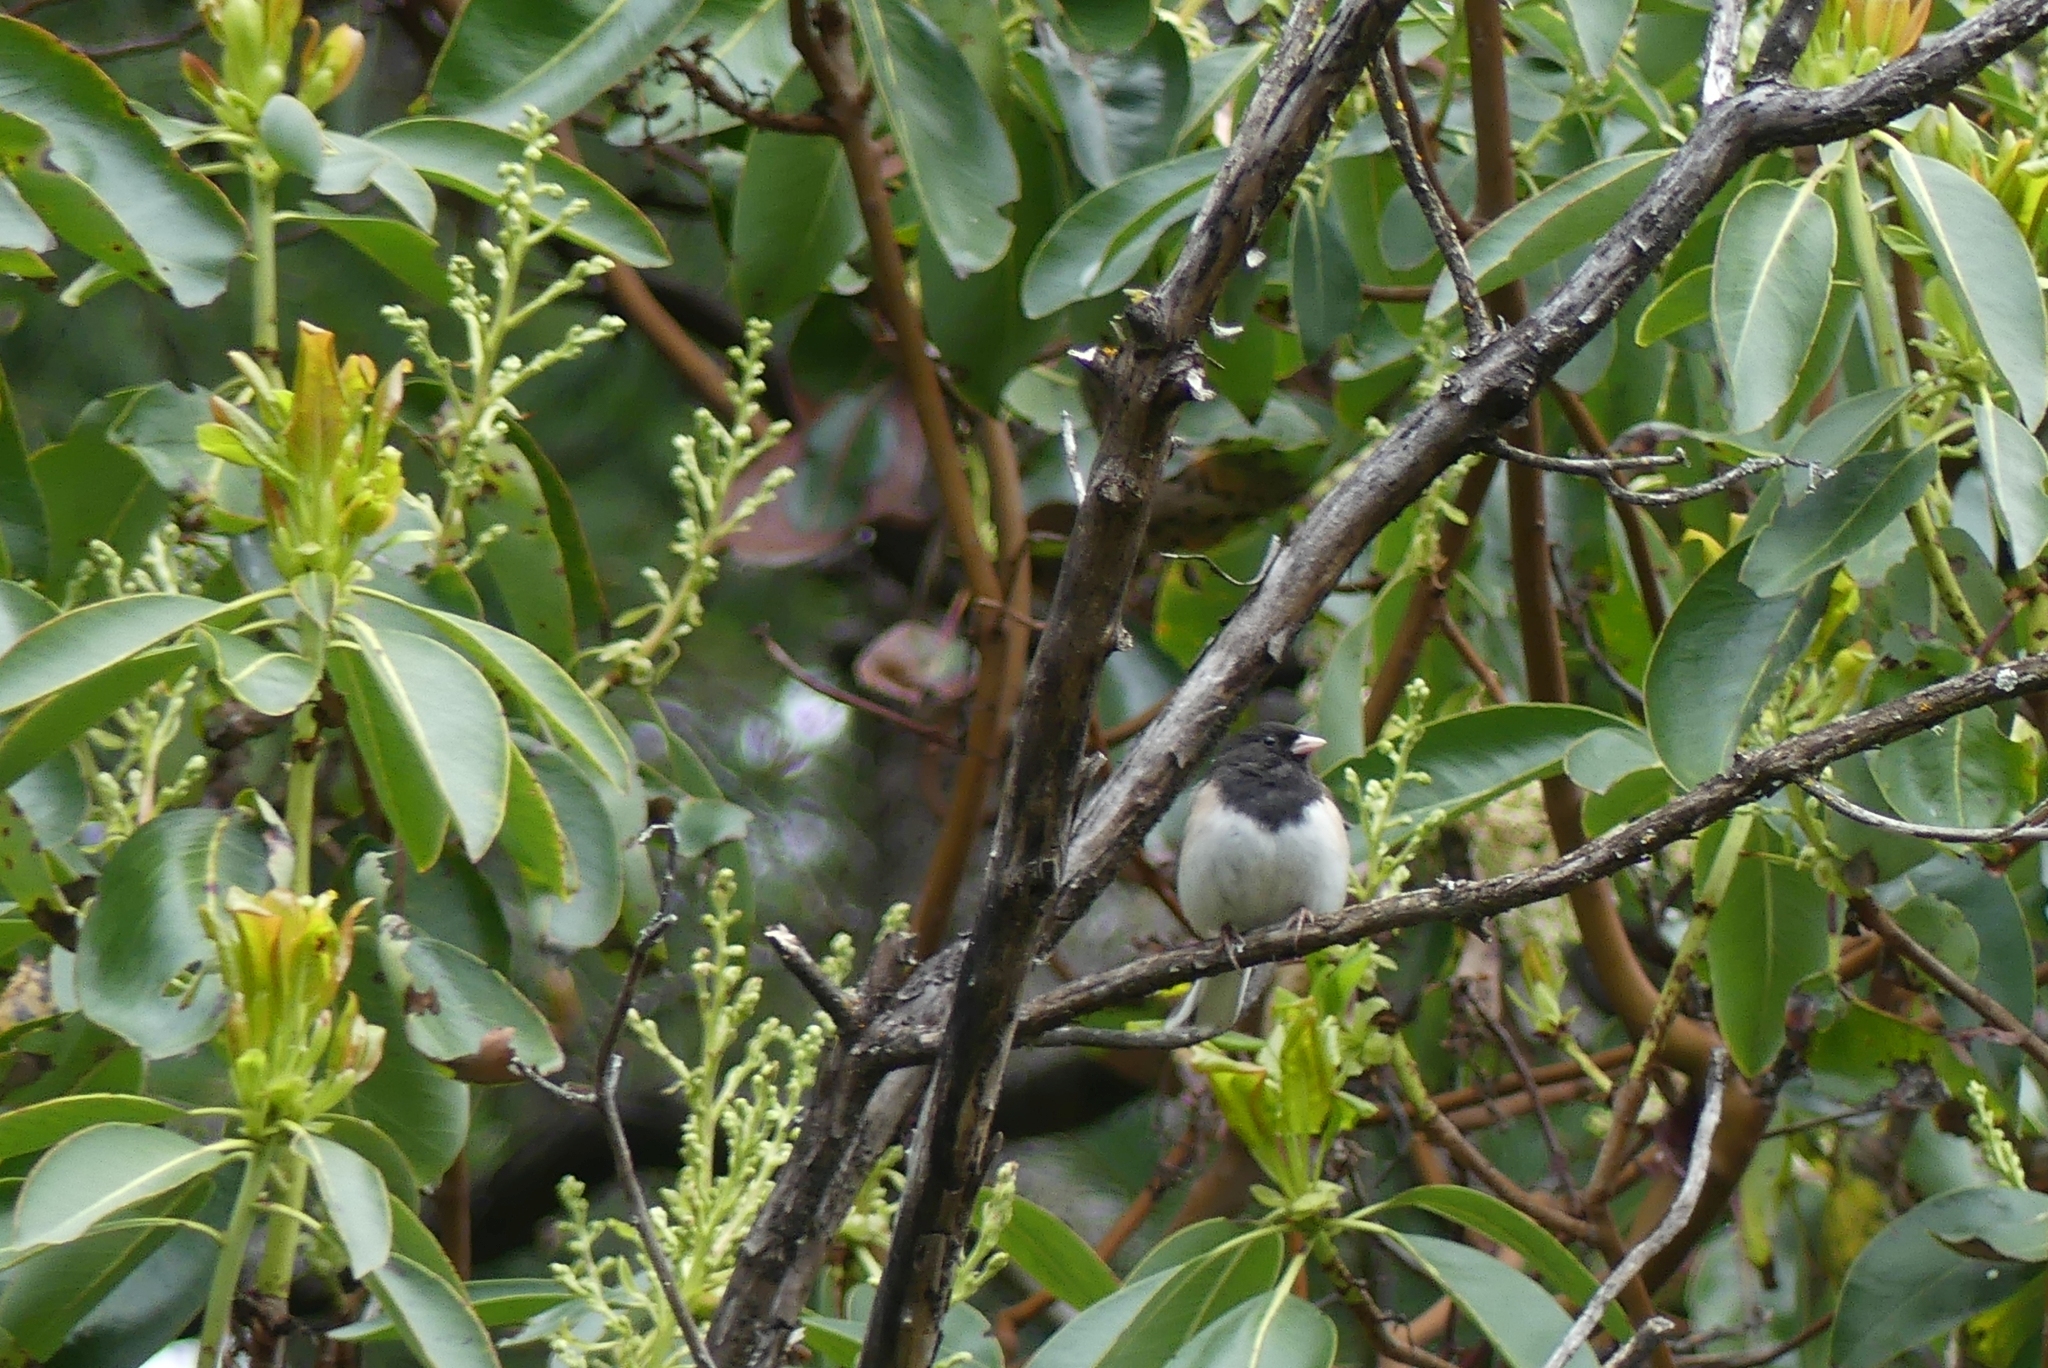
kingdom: Animalia
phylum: Chordata
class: Aves
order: Passeriformes
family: Passerellidae
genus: Junco
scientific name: Junco hyemalis
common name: Dark-eyed junco
